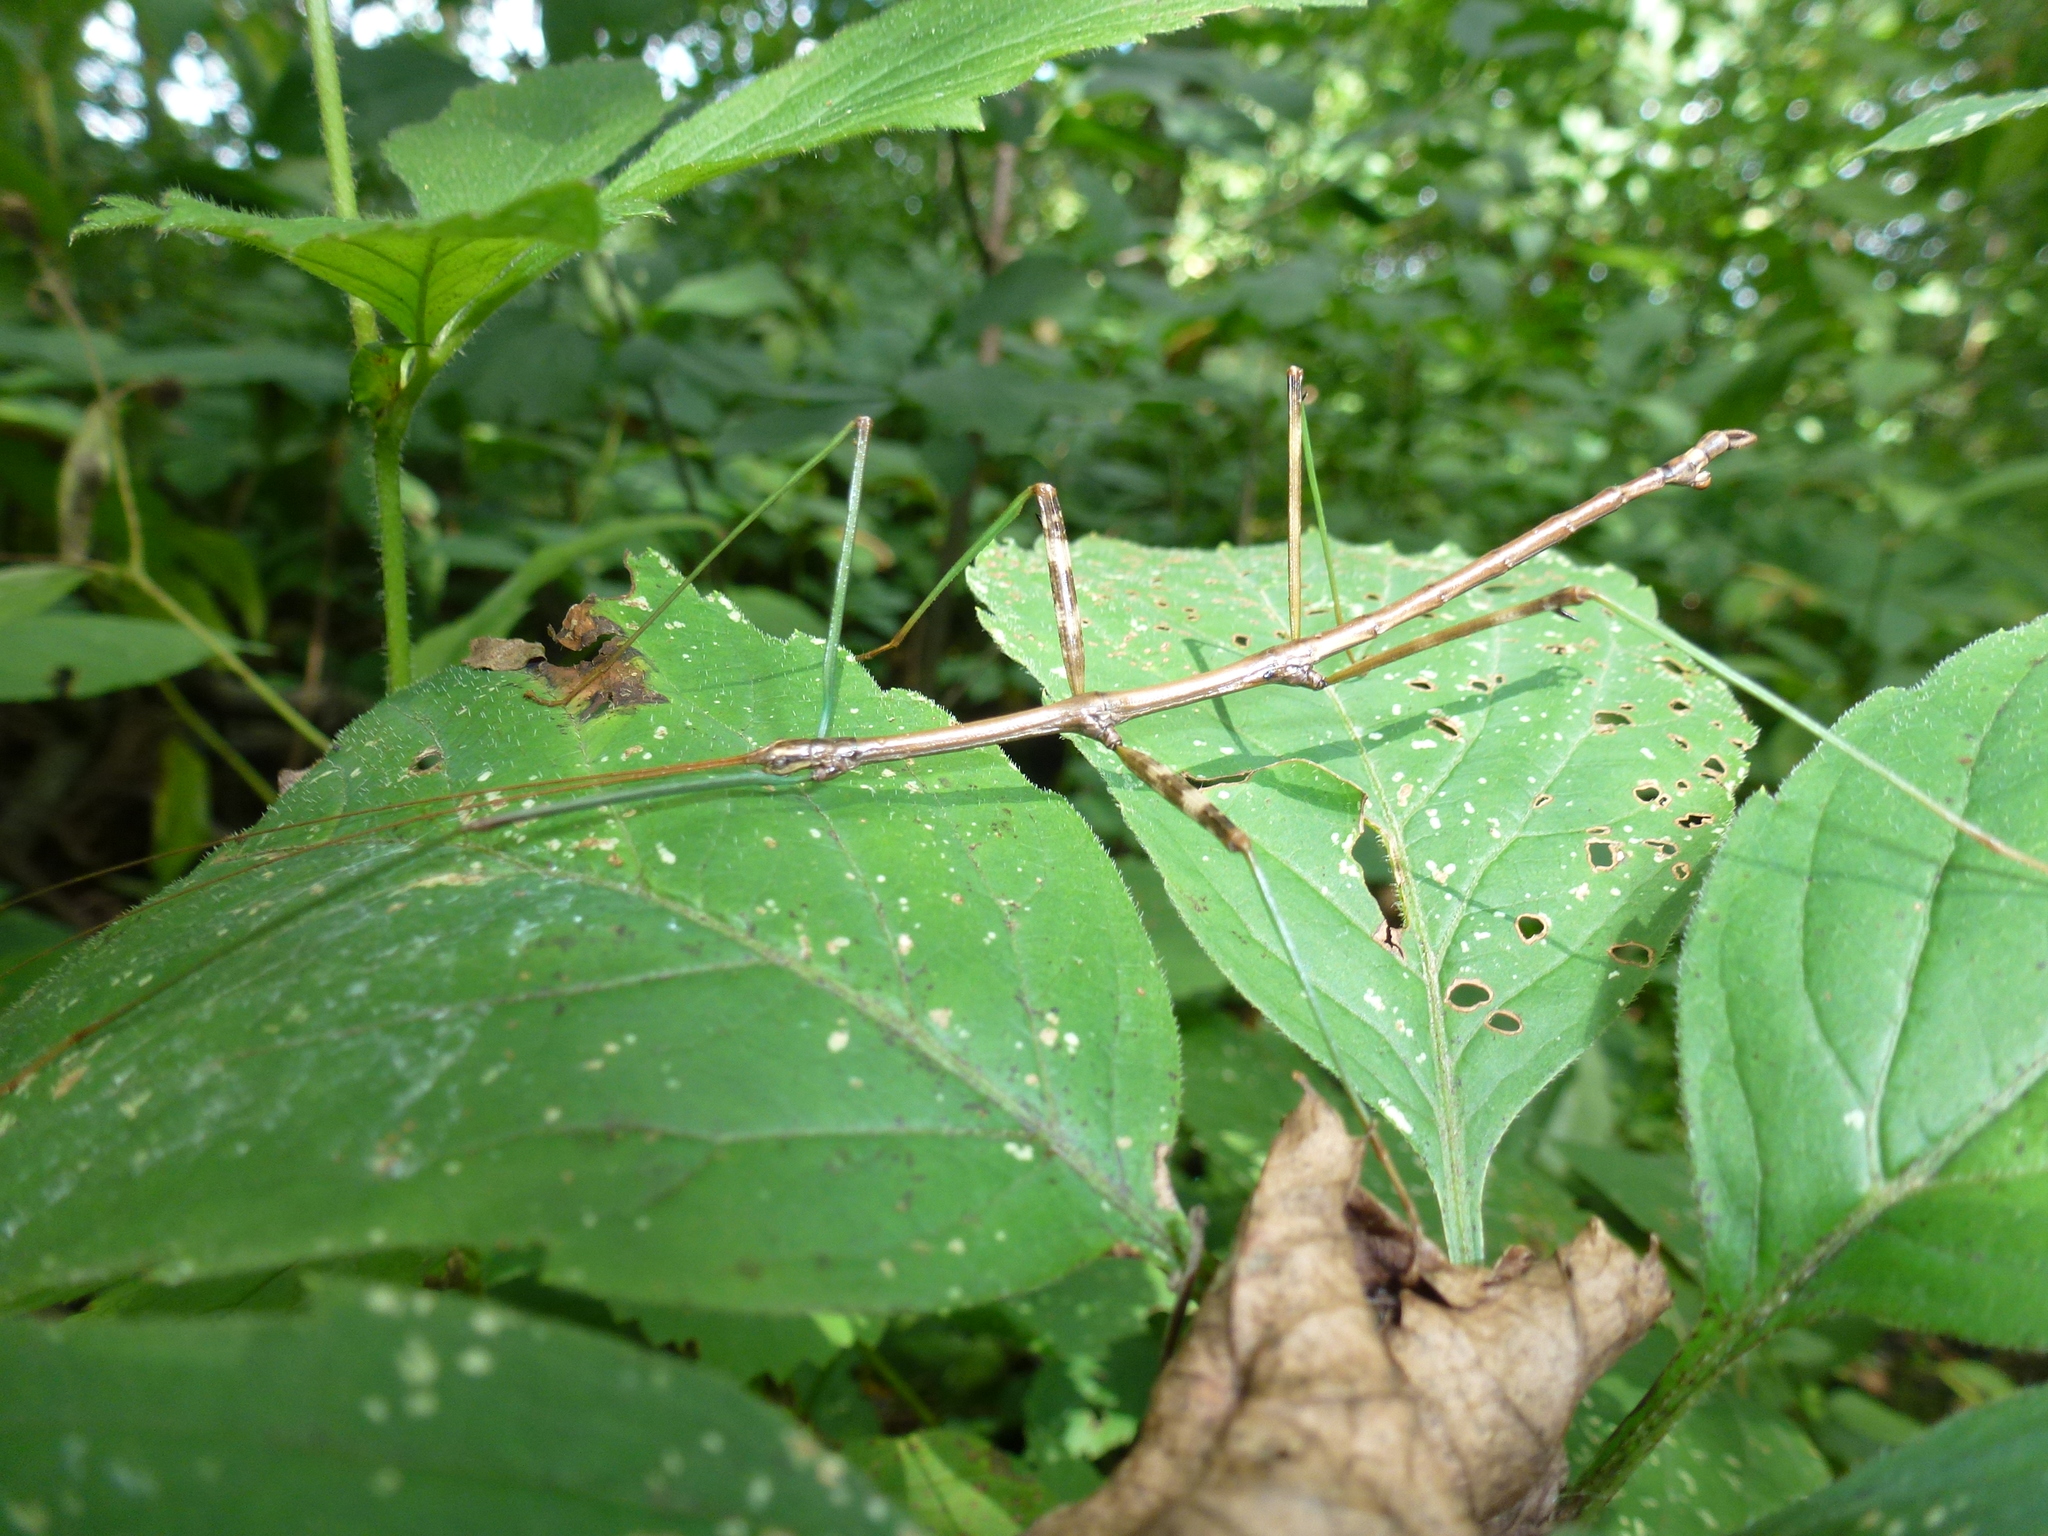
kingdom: Animalia
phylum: Arthropoda
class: Insecta
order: Phasmida
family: Diapheromeridae
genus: Diapheromera
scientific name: Diapheromera femorata
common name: Common american walkingstick
